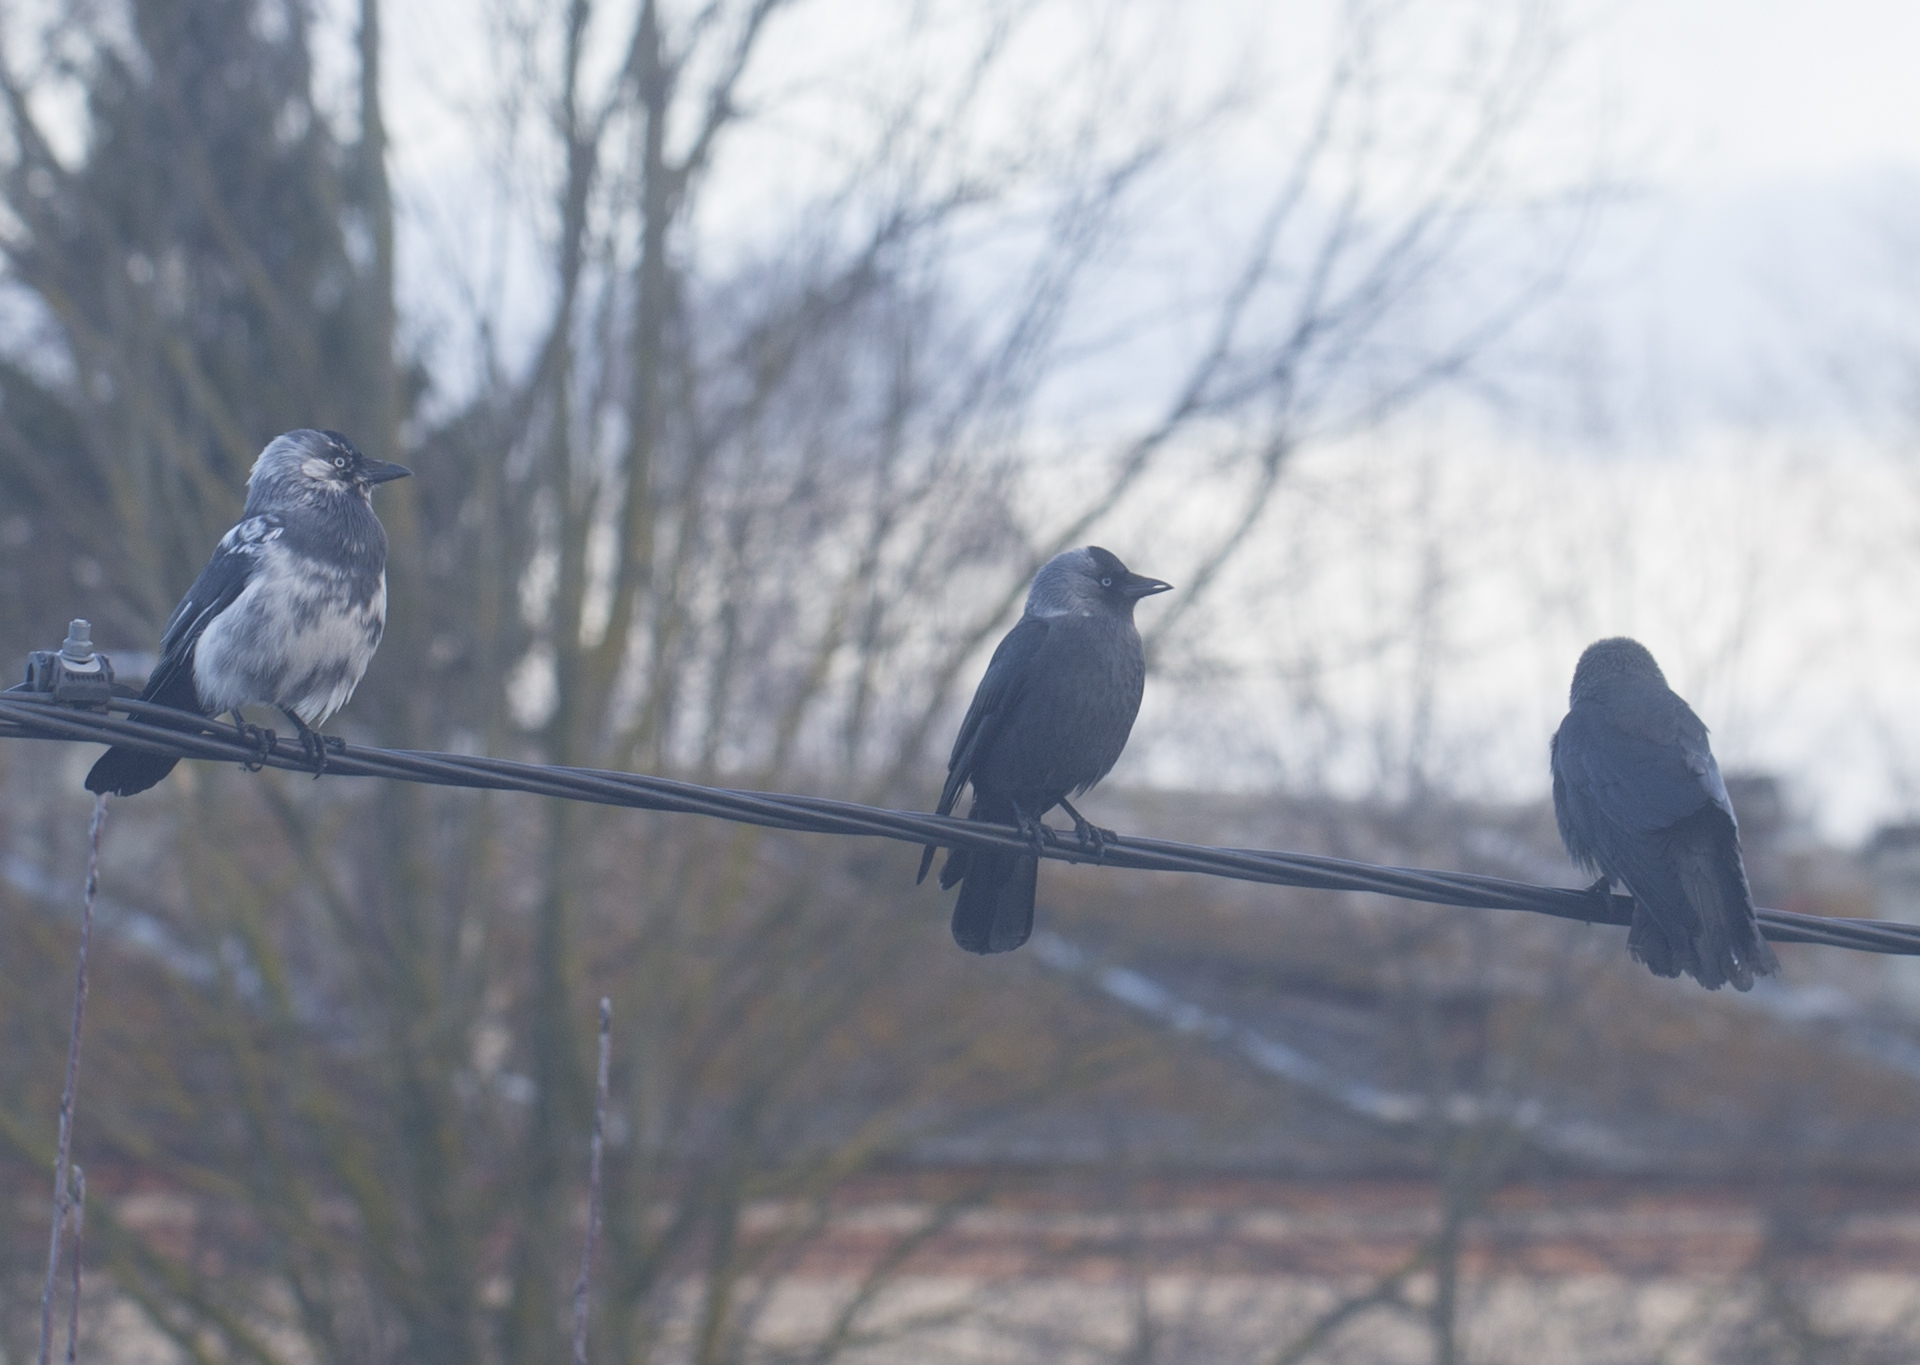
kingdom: Animalia
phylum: Chordata
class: Aves
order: Passeriformes
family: Corvidae
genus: Coloeus
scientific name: Coloeus monedula
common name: Western jackdaw
